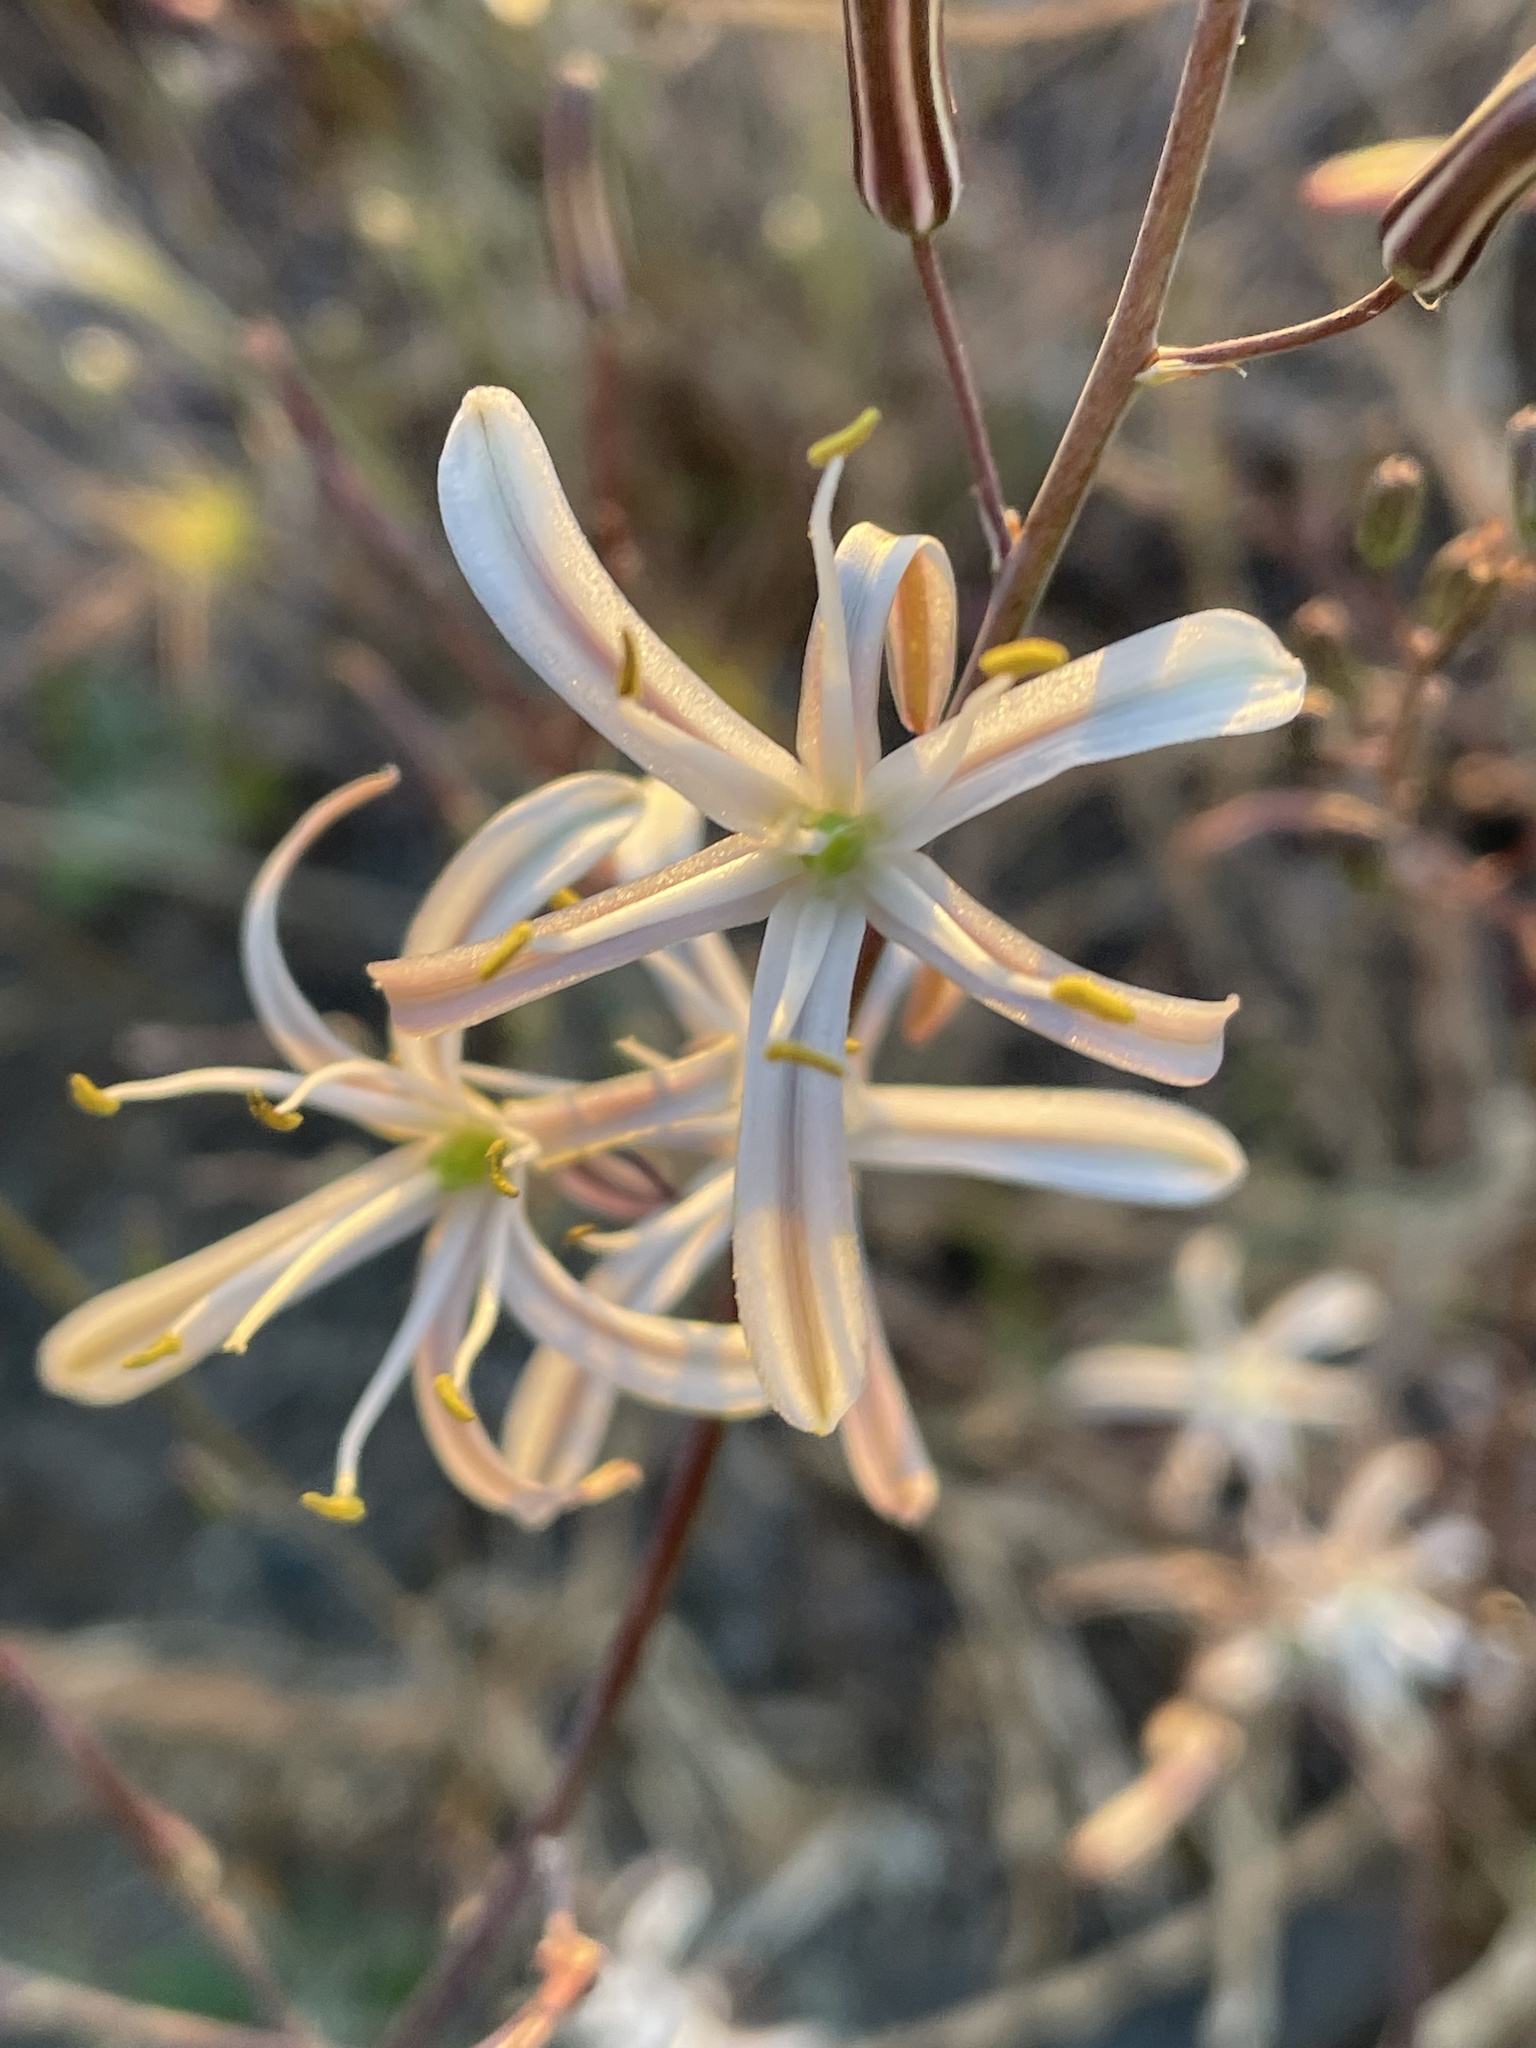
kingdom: Plantae
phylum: Tracheophyta
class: Liliopsida
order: Asparagales
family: Asparagaceae
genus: Chlorogalum
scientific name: Chlorogalum pomeridianum
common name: Amole
